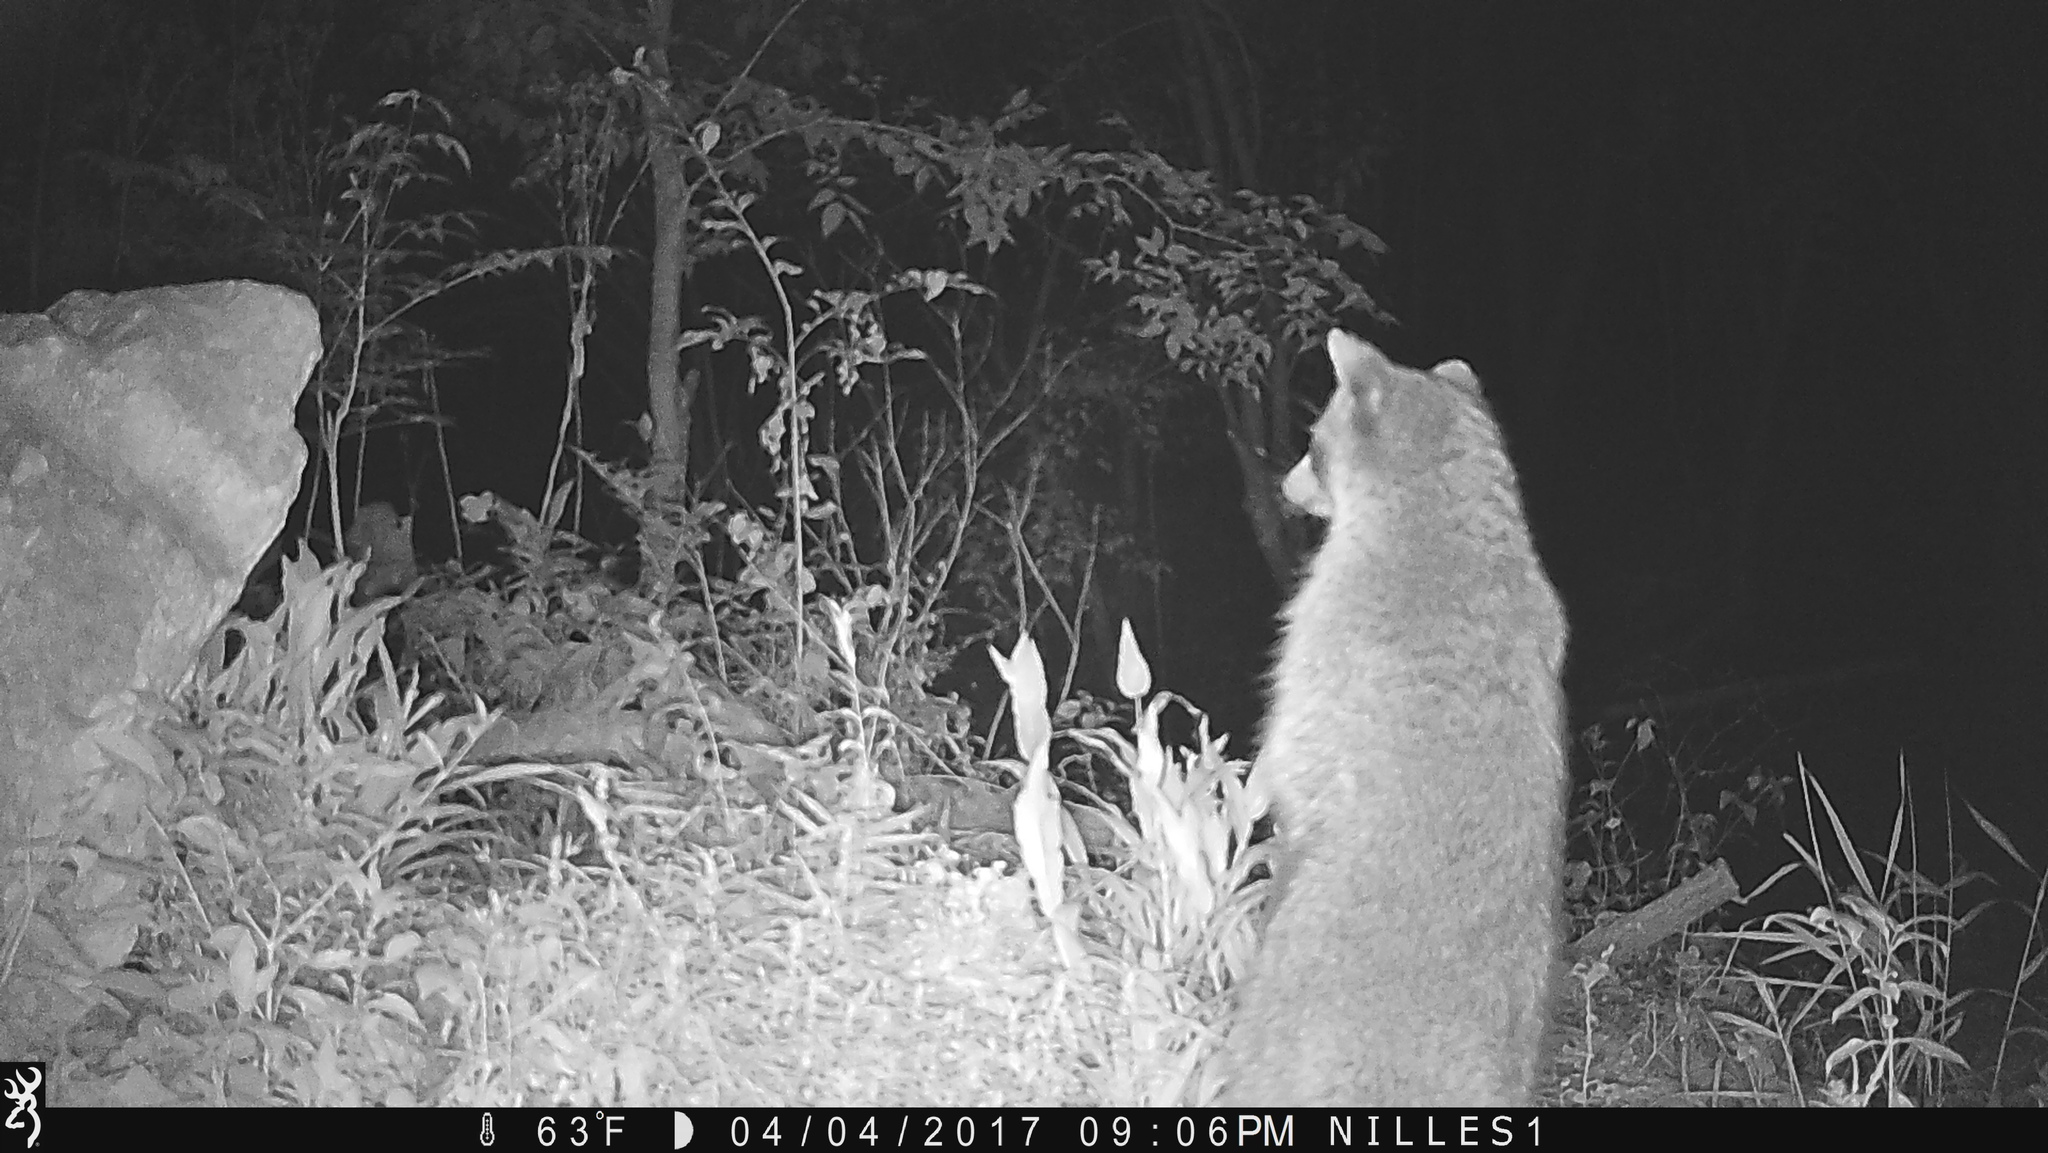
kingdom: Animalia
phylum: Chordata
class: Mammalia
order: Carnivora
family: Procyonidae
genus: Procyon
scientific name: Procyon lotor
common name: Raccoon
